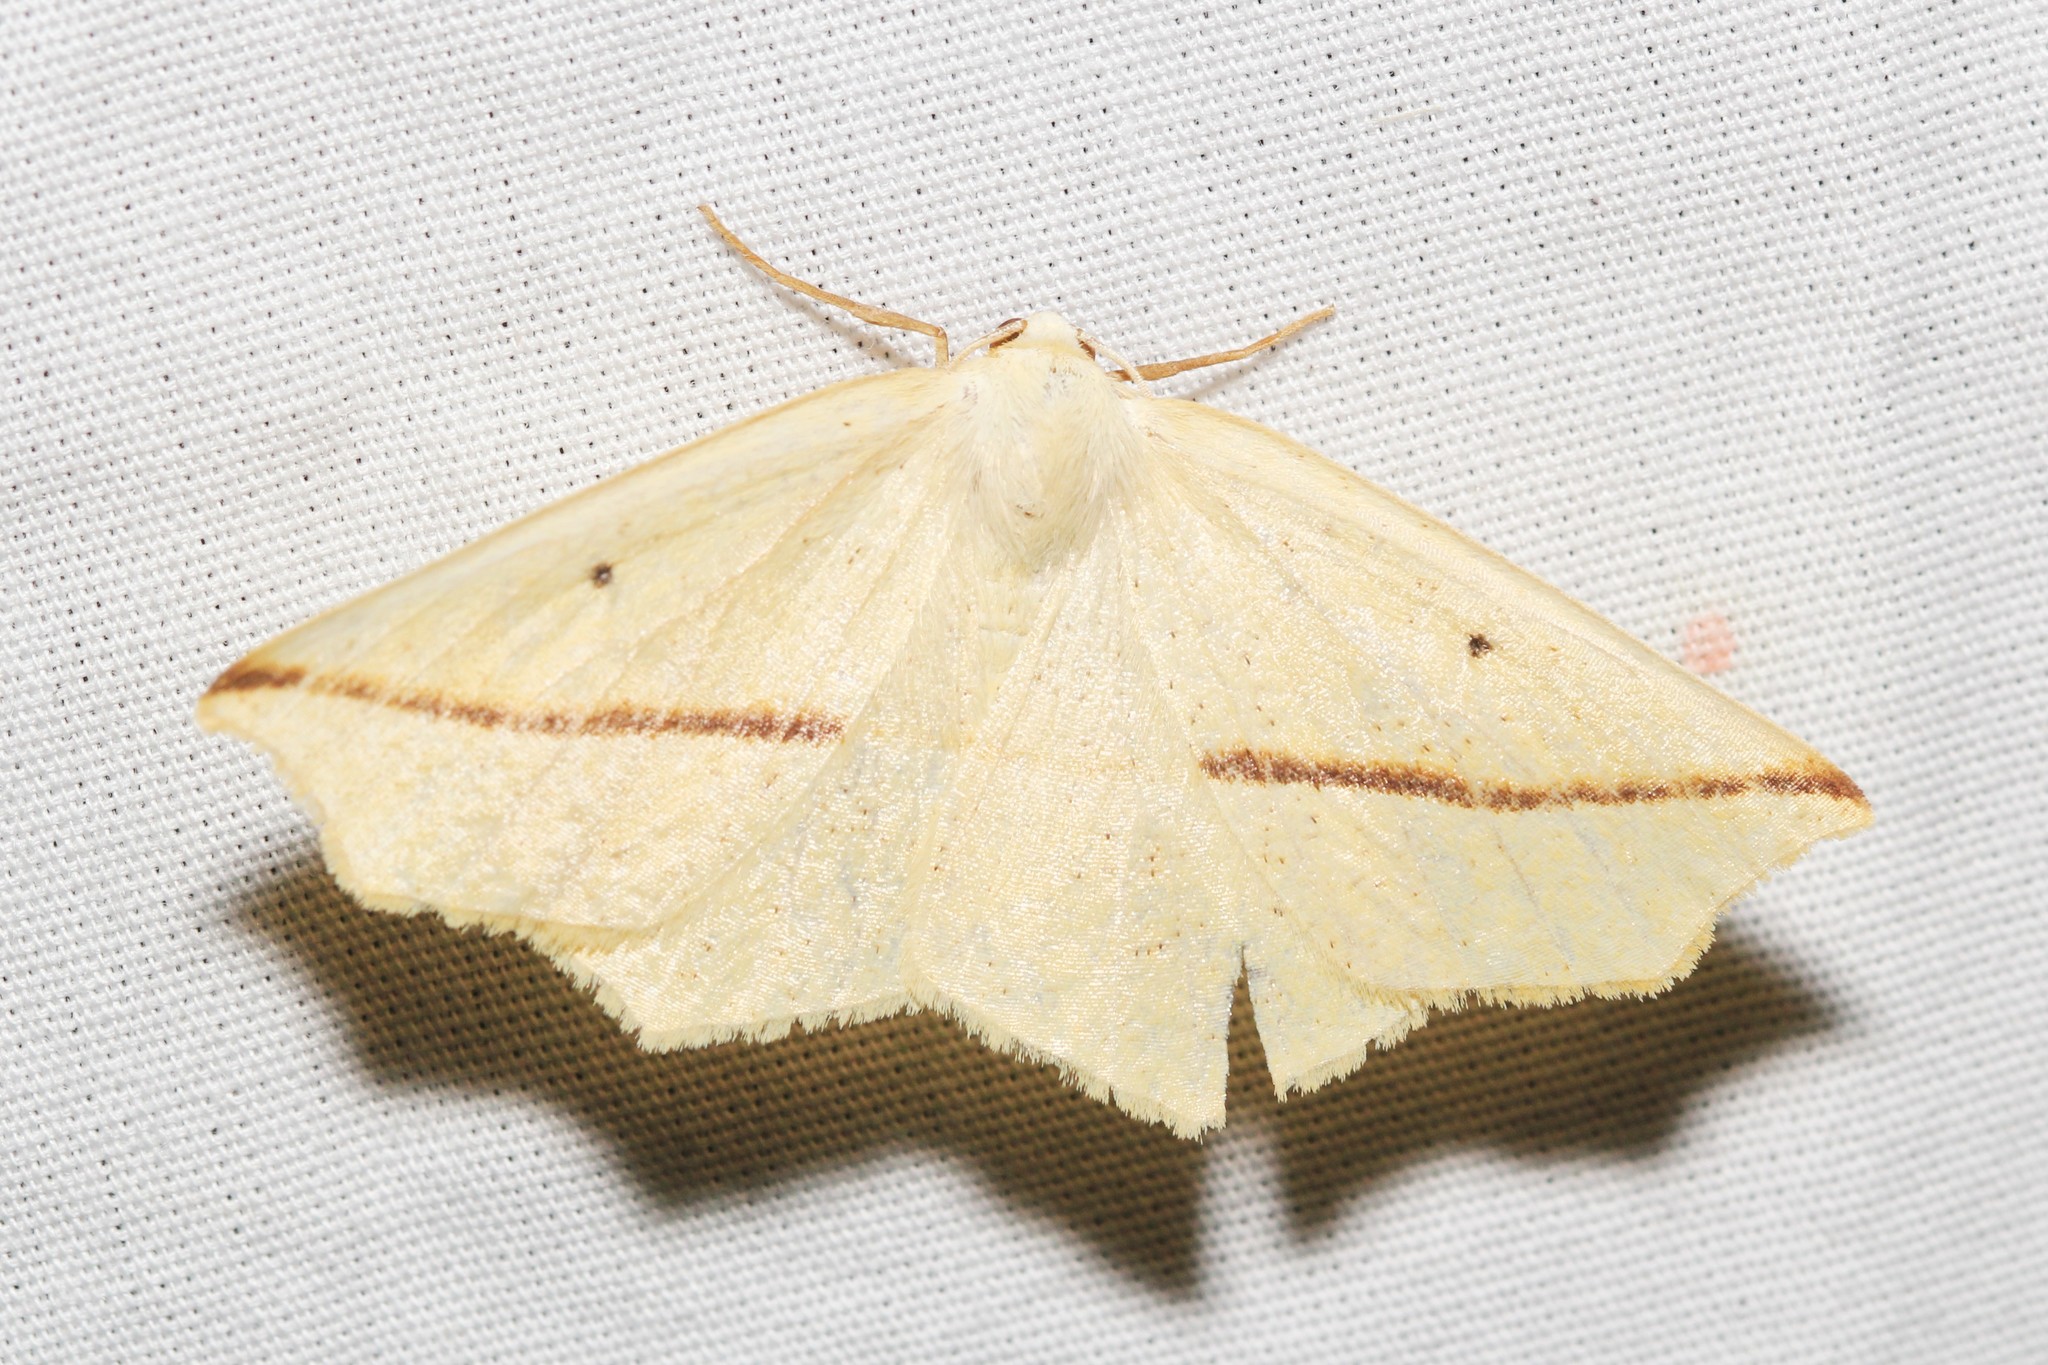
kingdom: Animalia
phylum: Arthropoda
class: Insecta
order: Lepidoptera
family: Geometridae
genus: Tetracis
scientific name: Tetracis crocallata
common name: Yellow slant-line
